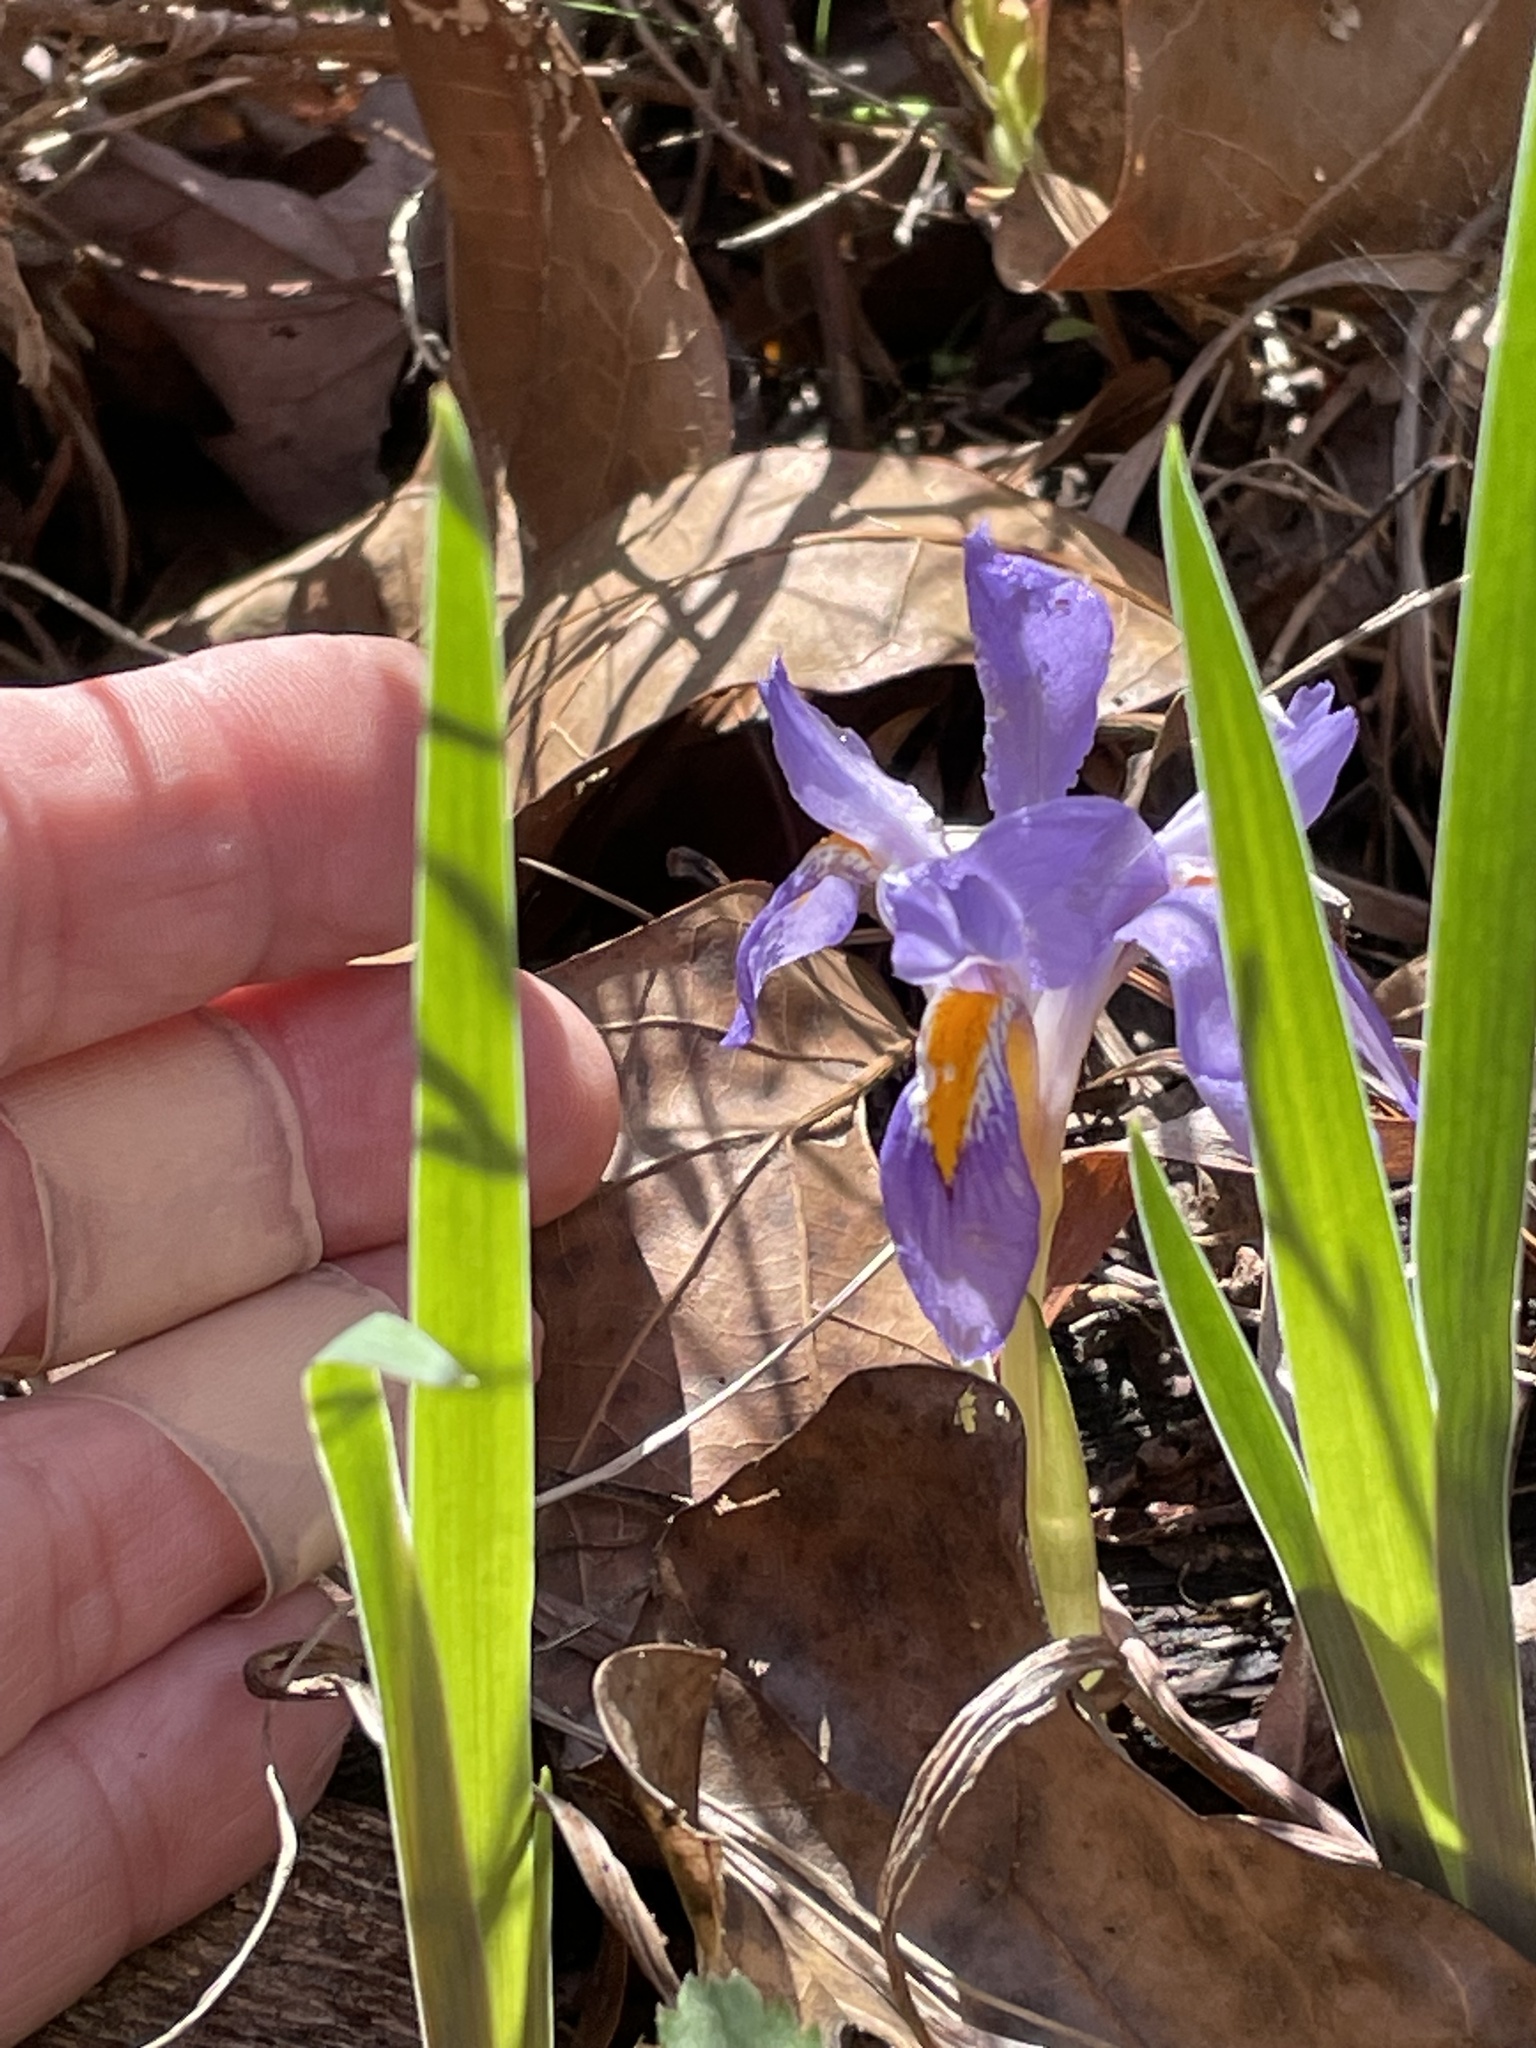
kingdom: Plantae
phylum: Tracheophyta
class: Liliopsida
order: Asparagales
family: Iridaceae
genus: Iris
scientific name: Iris verna
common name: Dwarf iris
